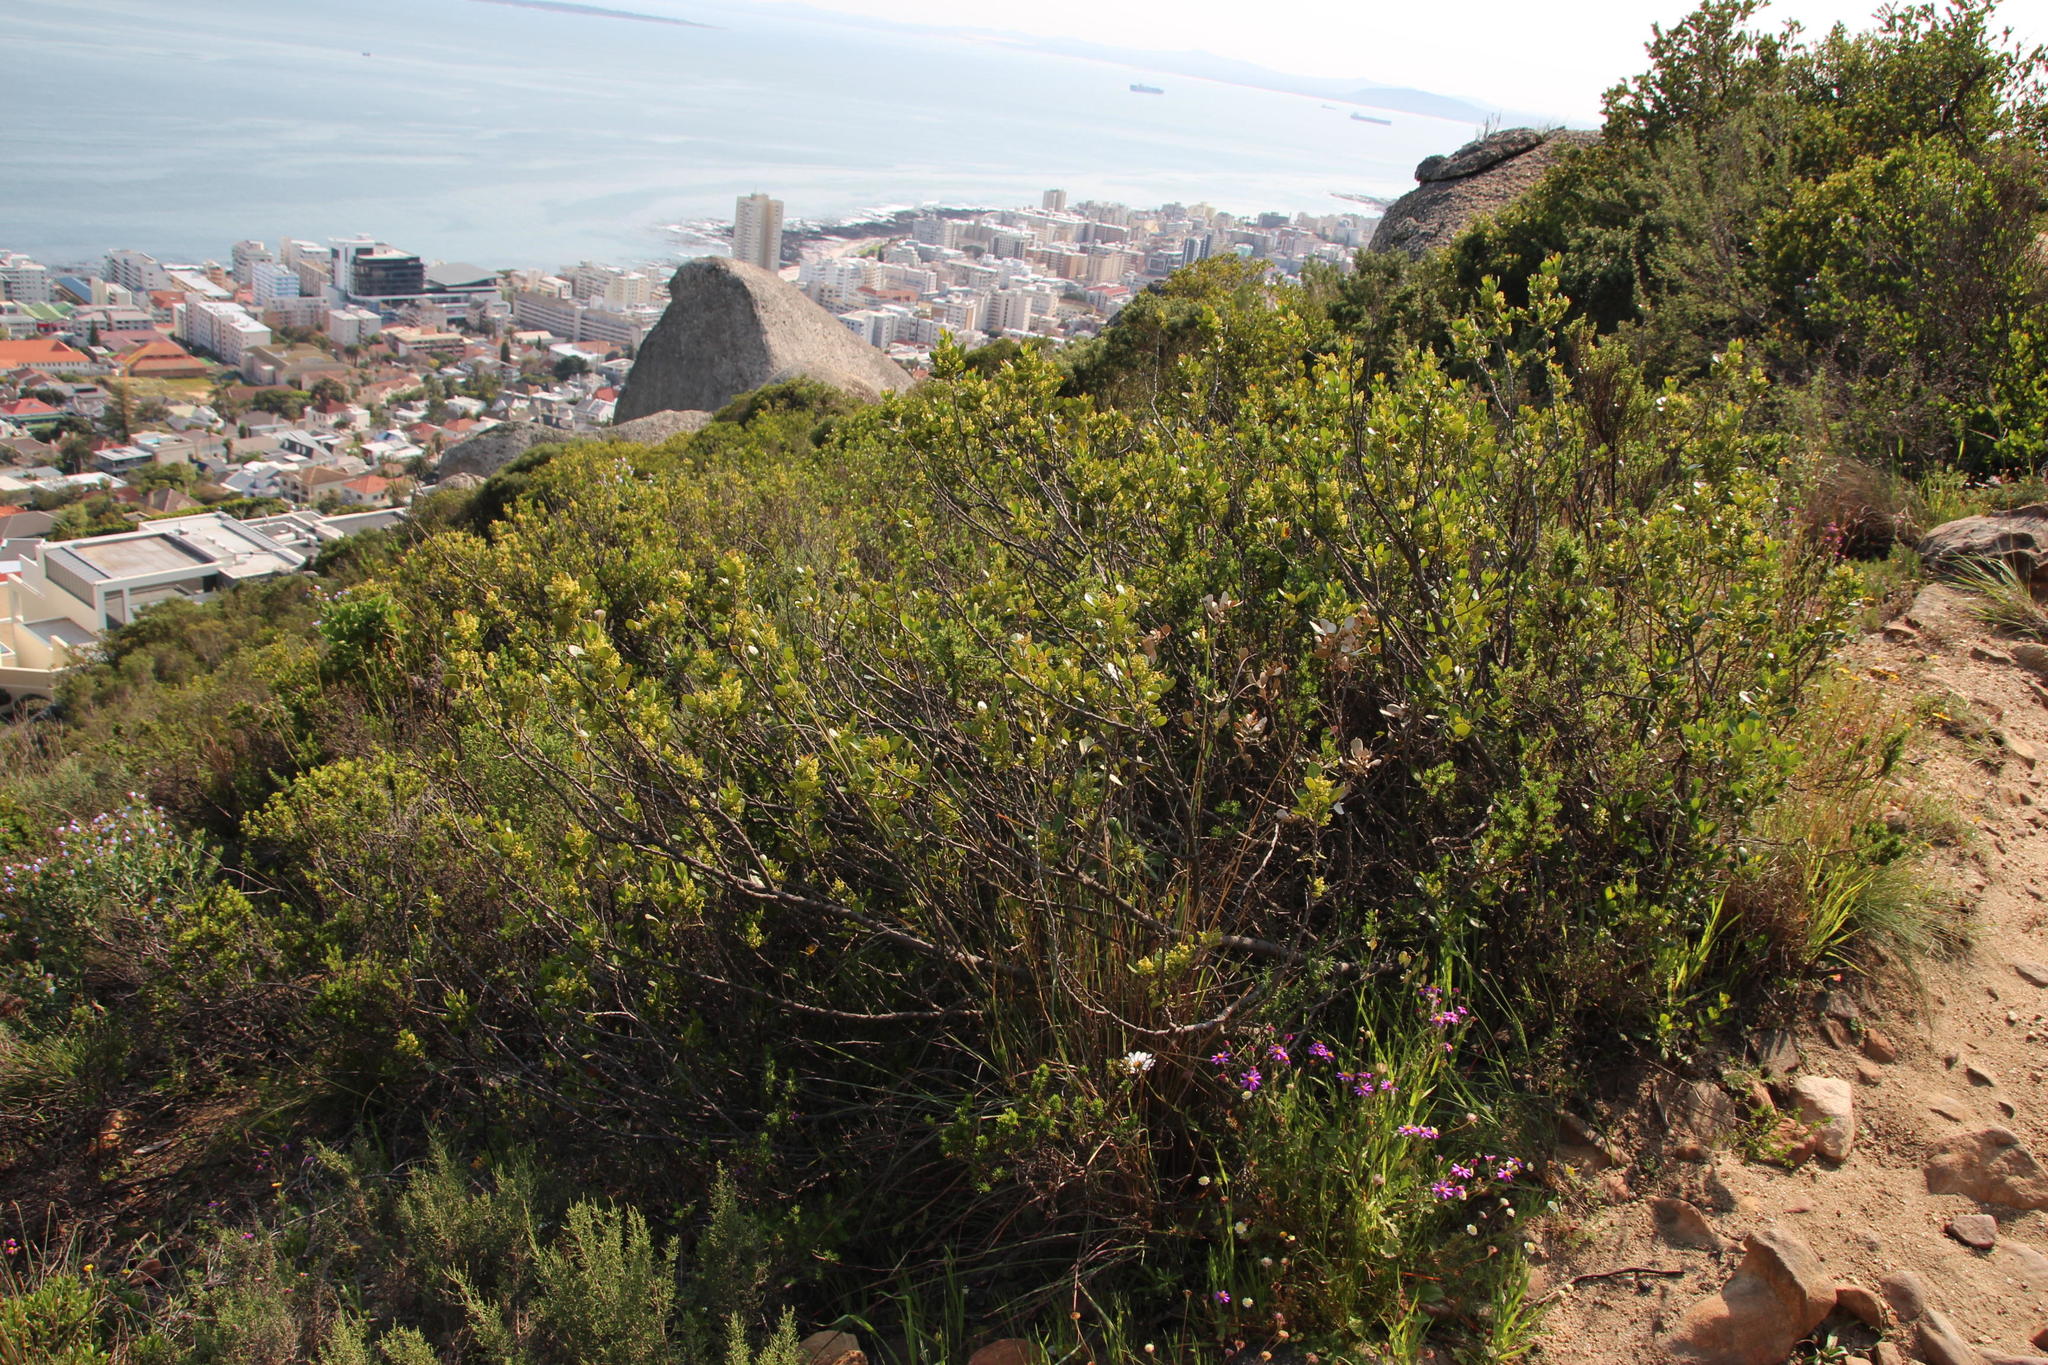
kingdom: Plantae
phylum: Tracheophyta
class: Magnoliopsida
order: Sapindales
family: Anacardiaceae
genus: Searsia
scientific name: Searsia lucida
